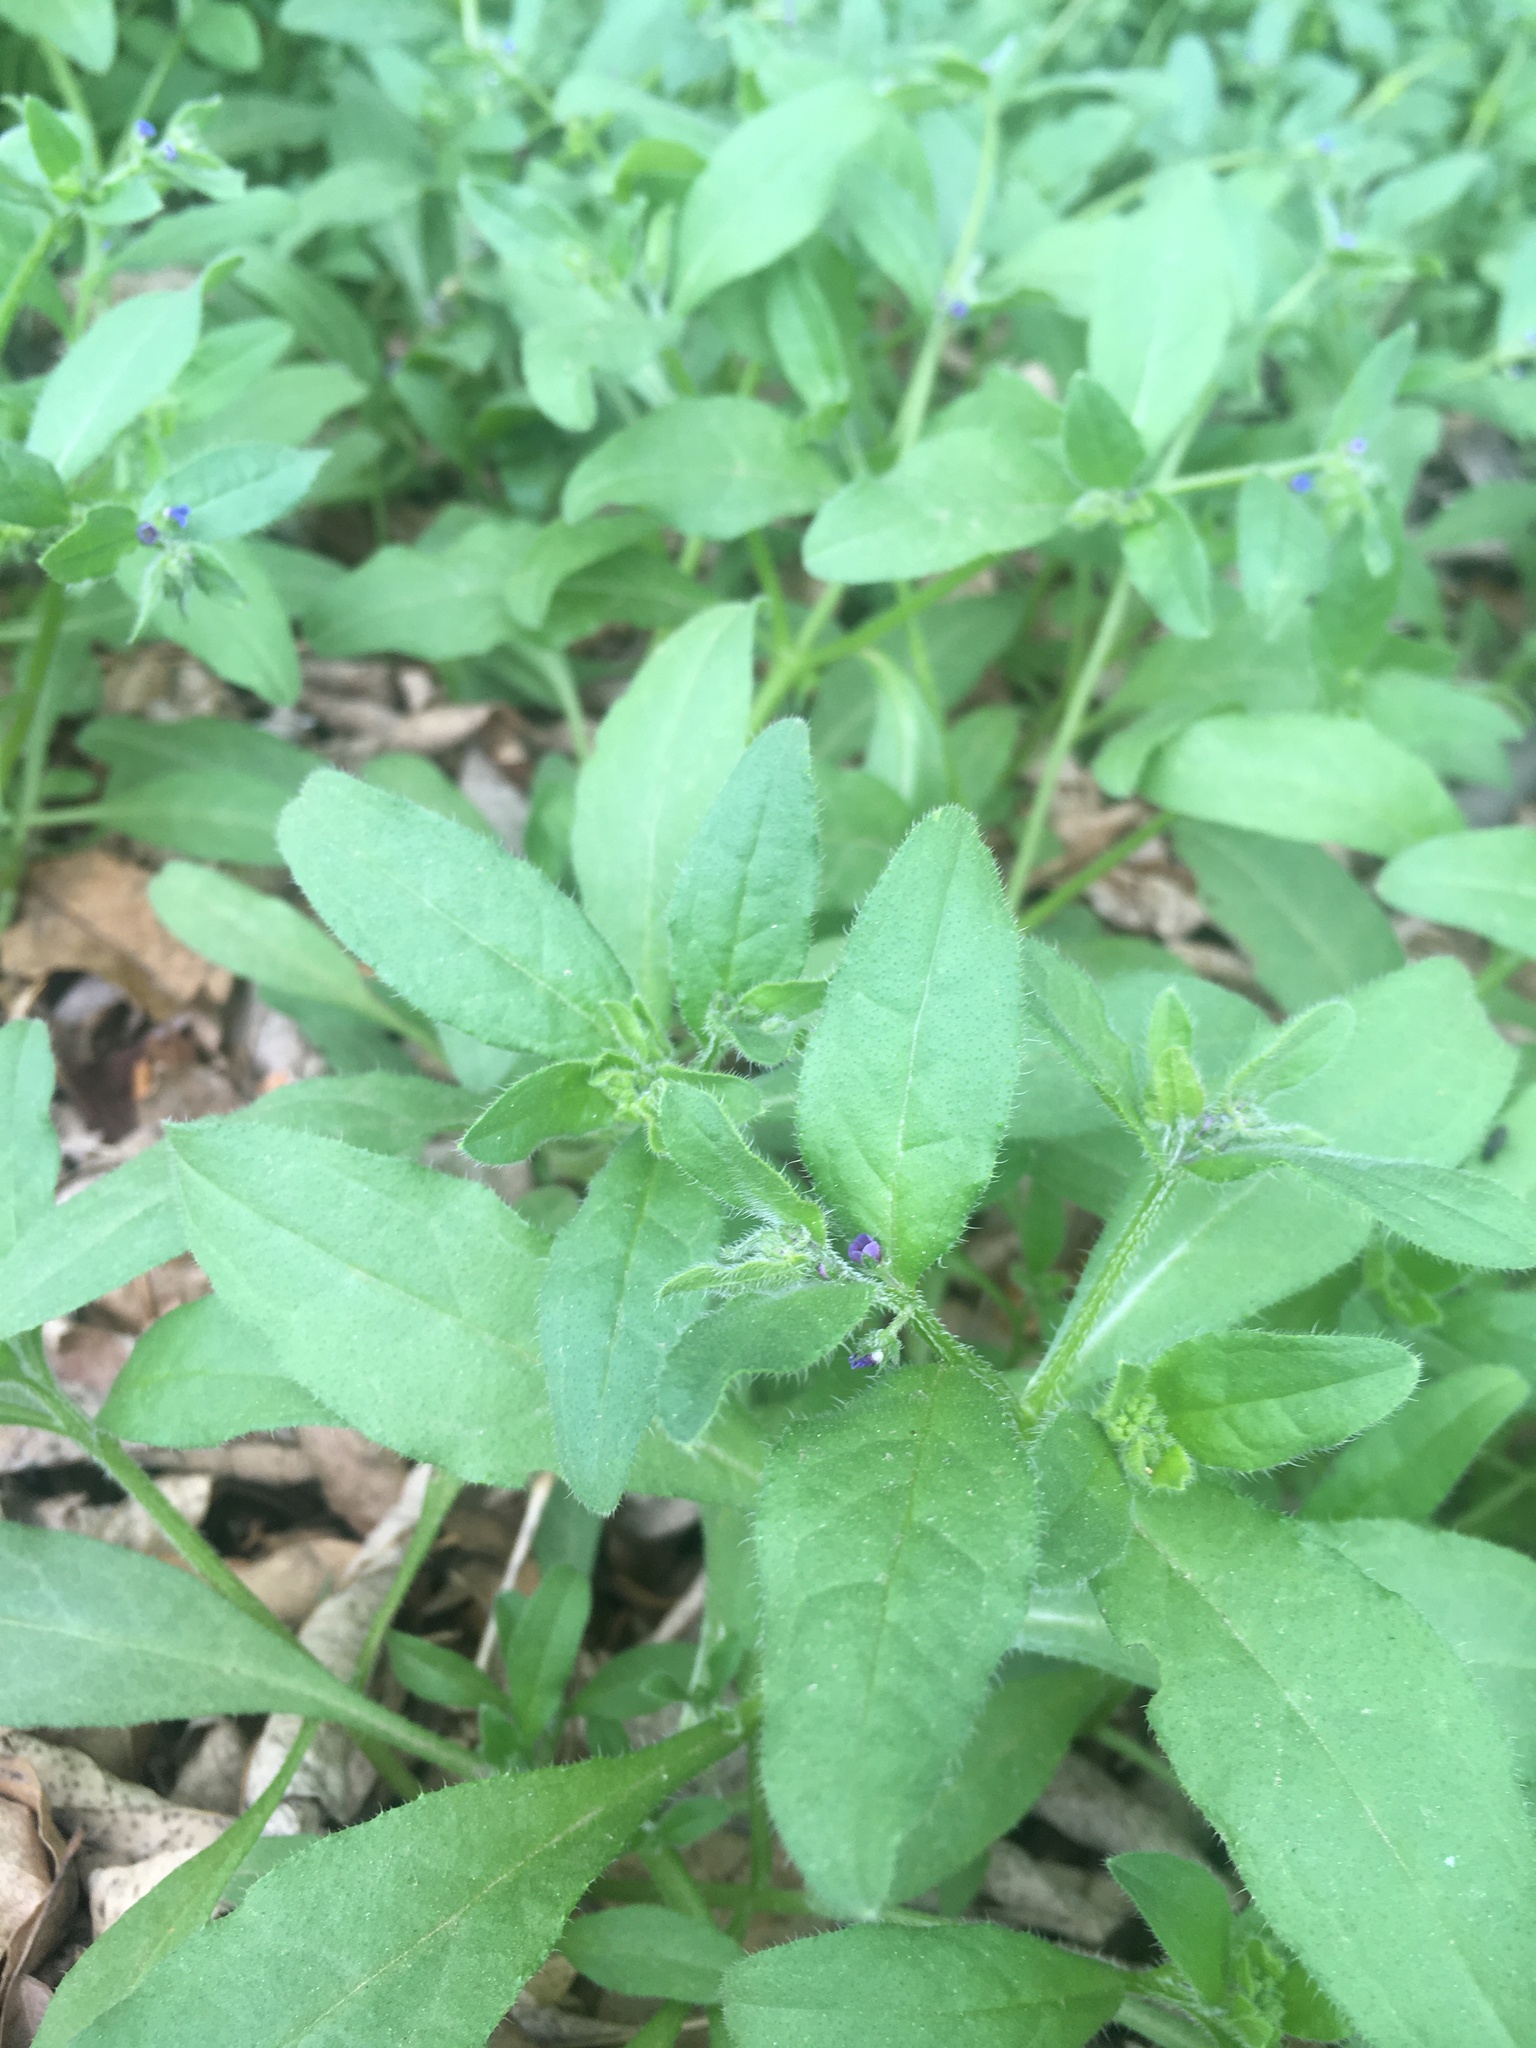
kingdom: Plantae
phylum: Tracheophyta
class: Magnoliopsida
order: Boraginales
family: Boraginaceae
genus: Asperugo
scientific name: Asperugo procumbens
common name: Madwort
